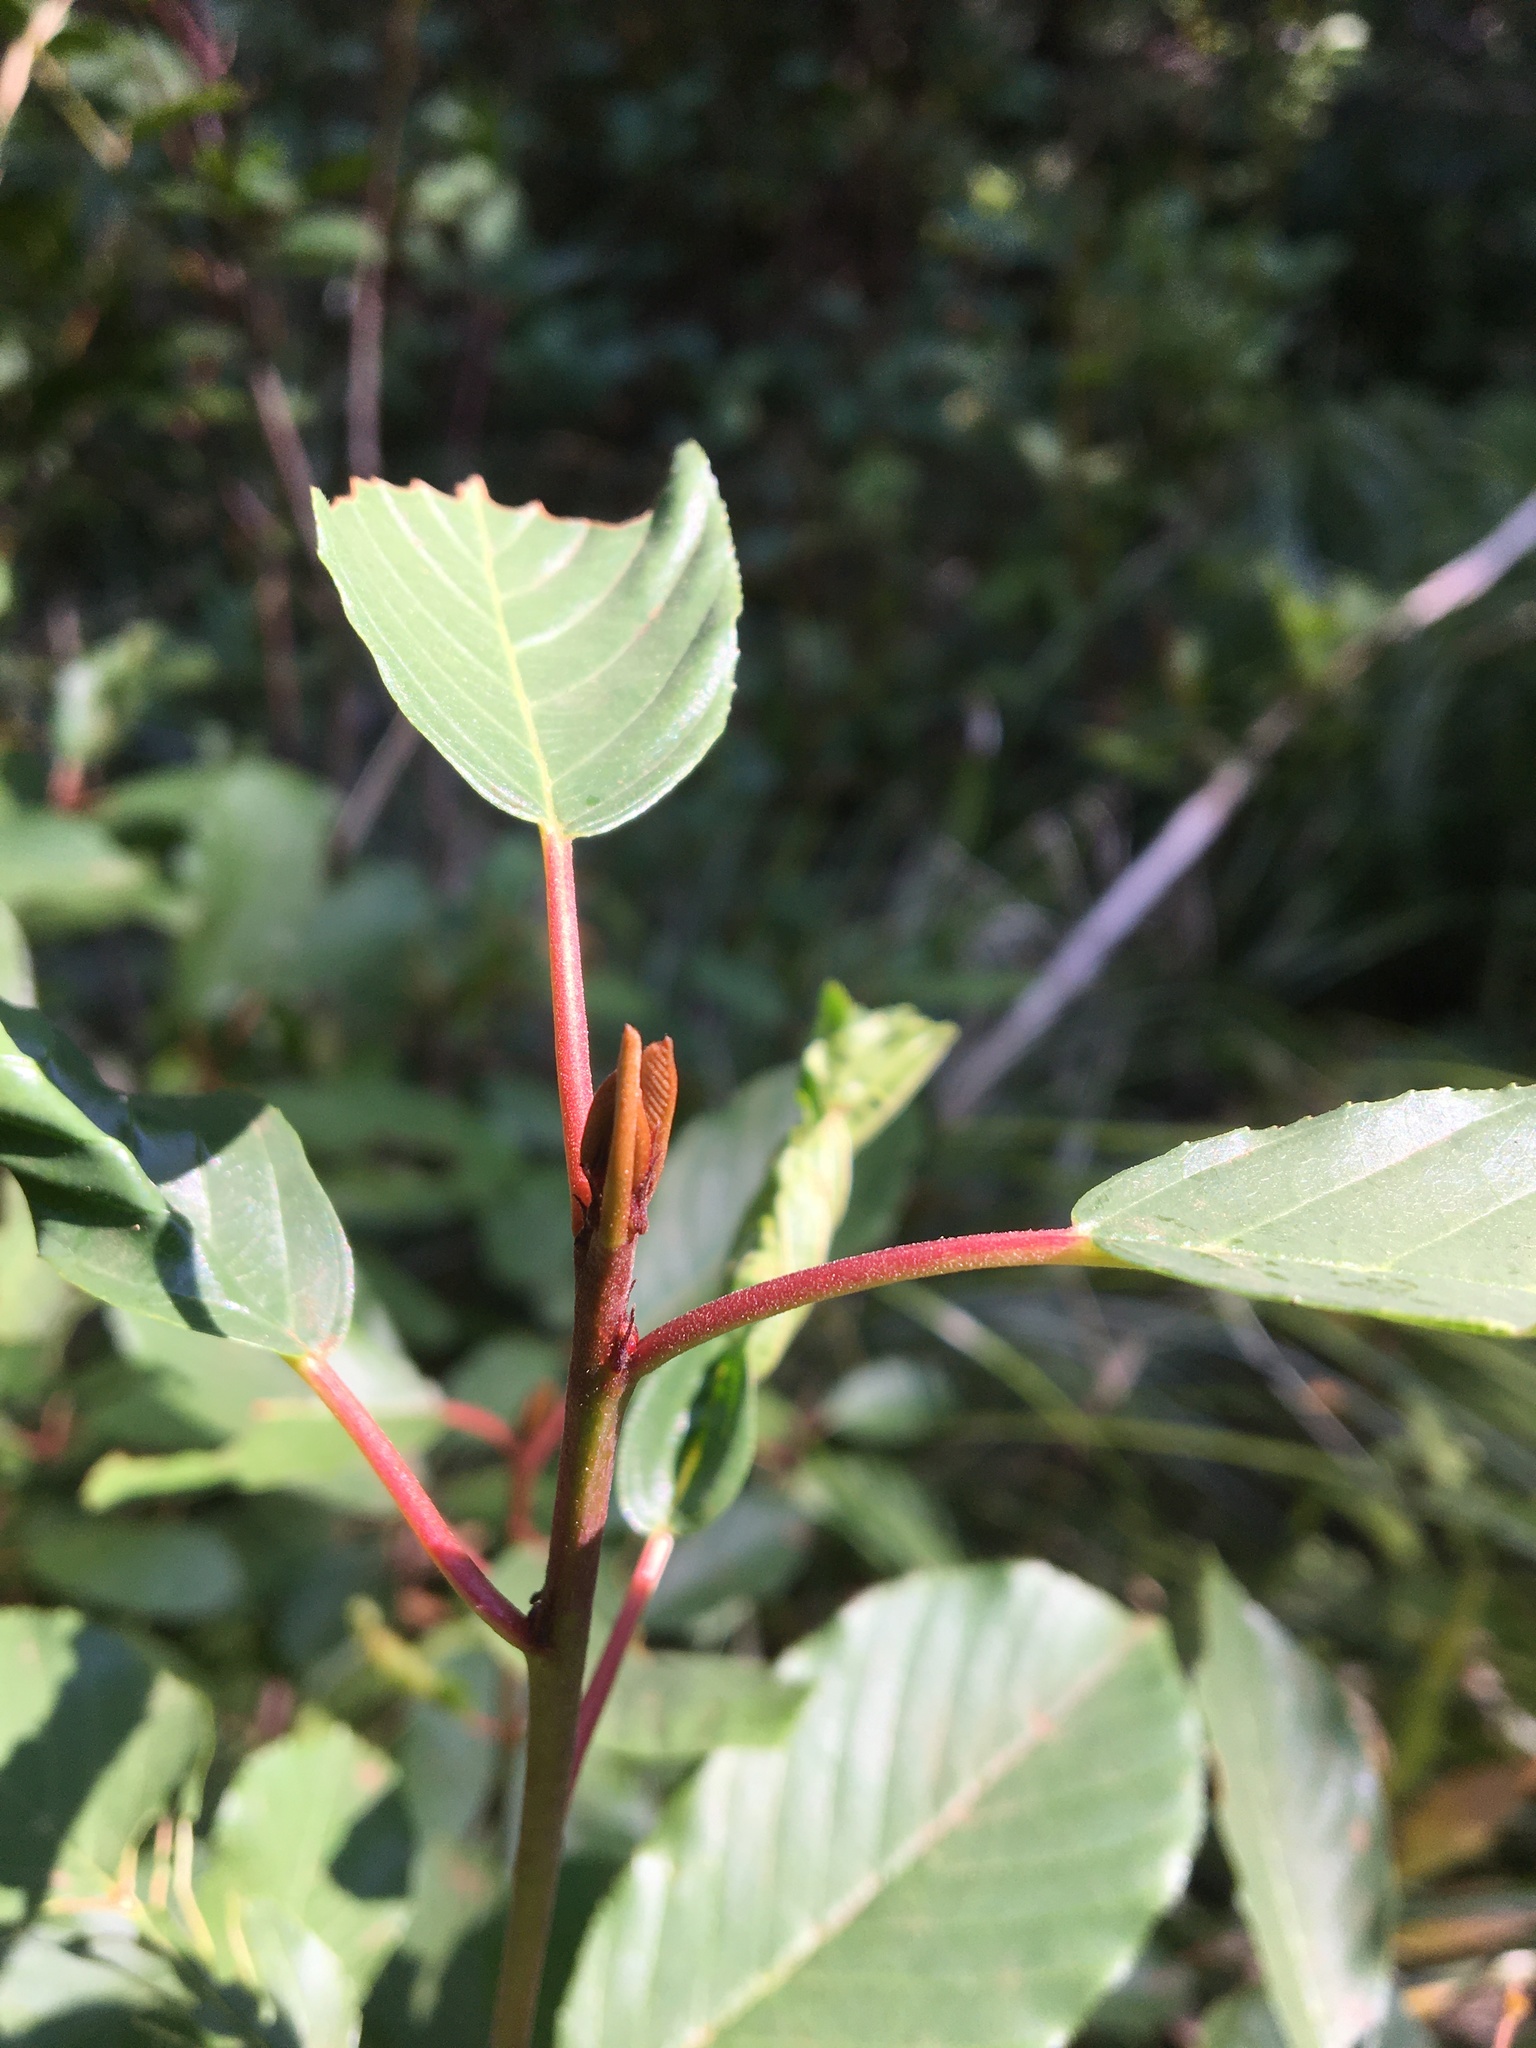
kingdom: Plantae
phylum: Tracheophyta
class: Magnoliopsida
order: Rosales
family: Rhamnaceae
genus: Frangula
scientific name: Frangula purshiana
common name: Cascara buckthorn
